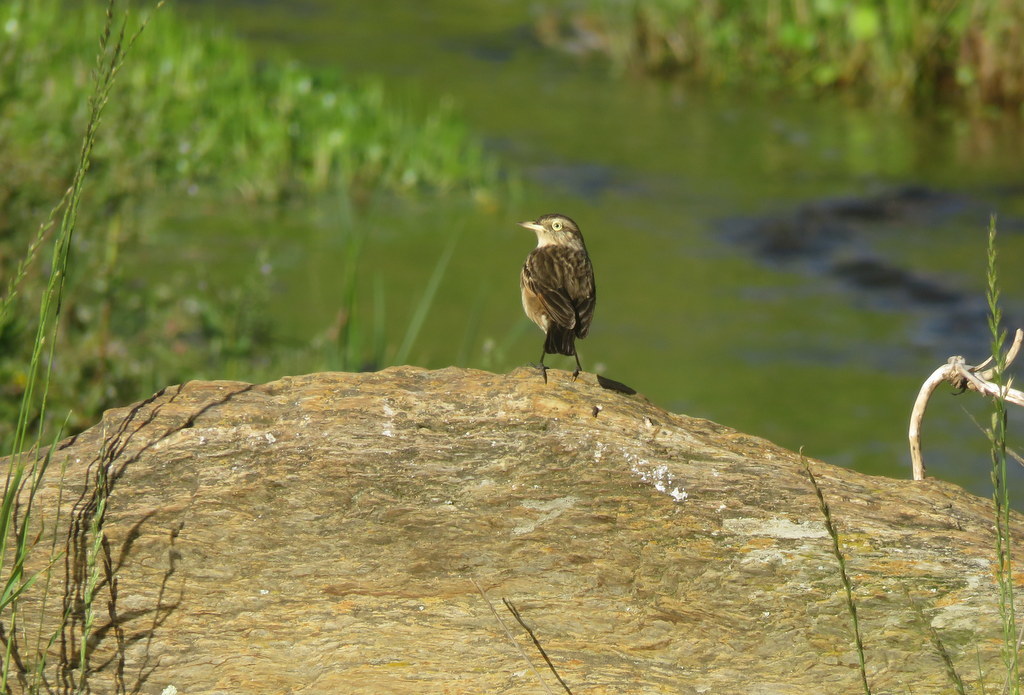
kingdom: Animalia
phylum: Chordata
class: Aves
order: Passeriformes
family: Tyrannidae
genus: Hymenops
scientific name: Hymenops perspicillatus
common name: Spectacled tyrant
